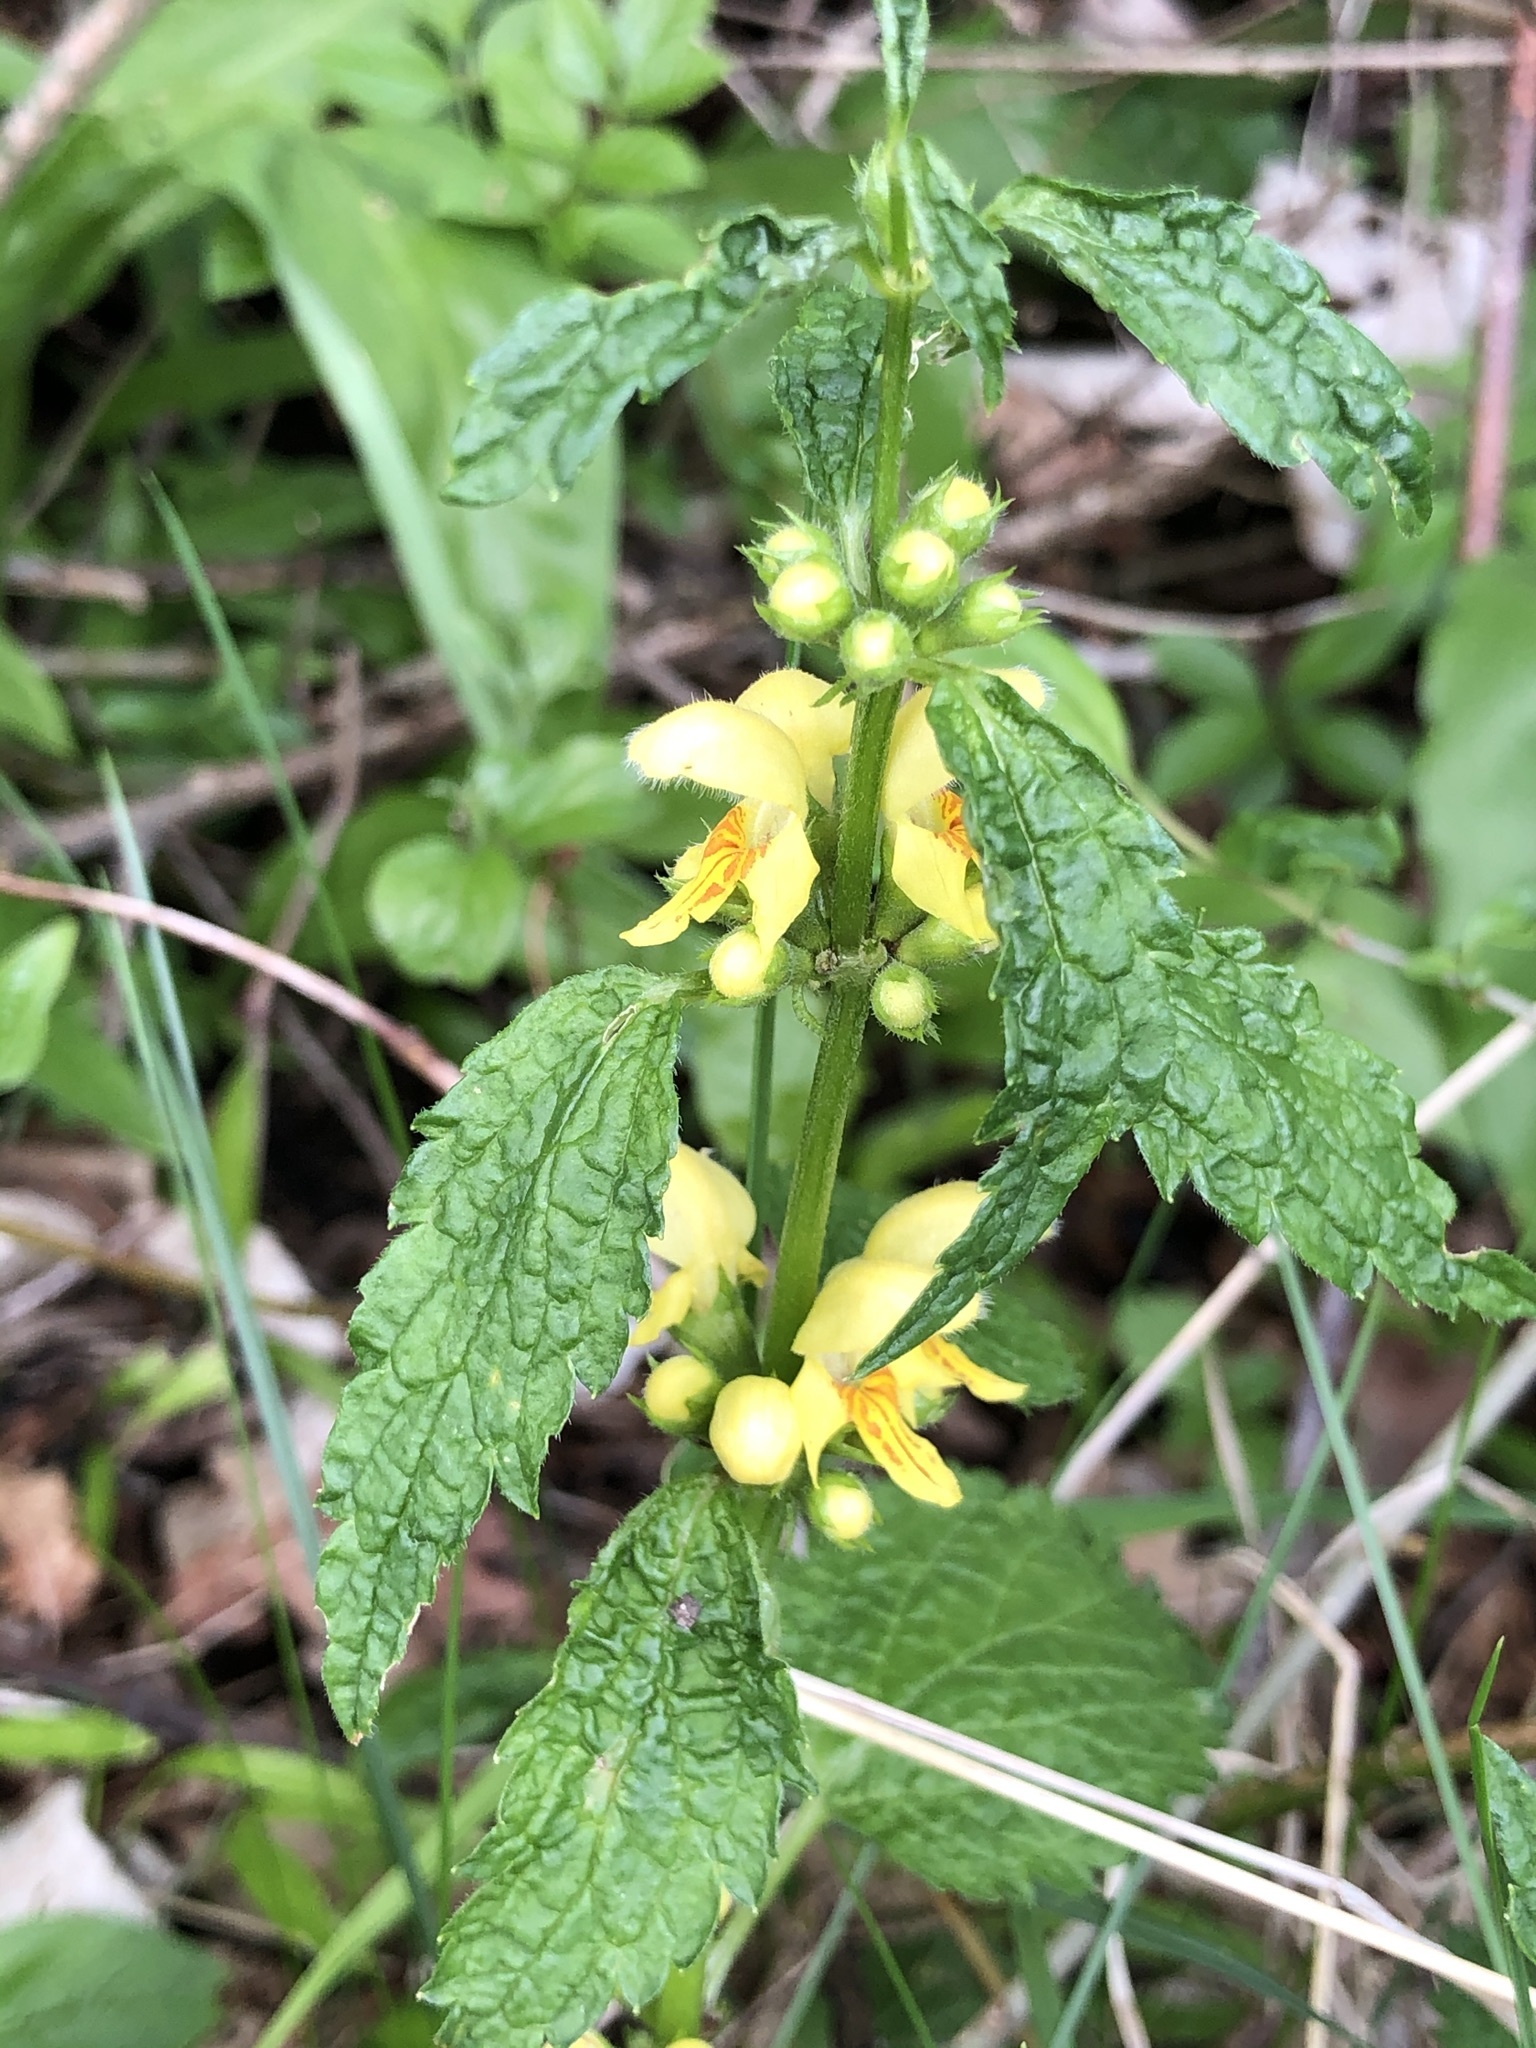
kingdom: Plantae
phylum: Tracheophyta
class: Magnoliopsida
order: Lamiales
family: Lamiaceae
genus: Lamium
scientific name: Lamium galeobdolon
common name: Yellow archangel
